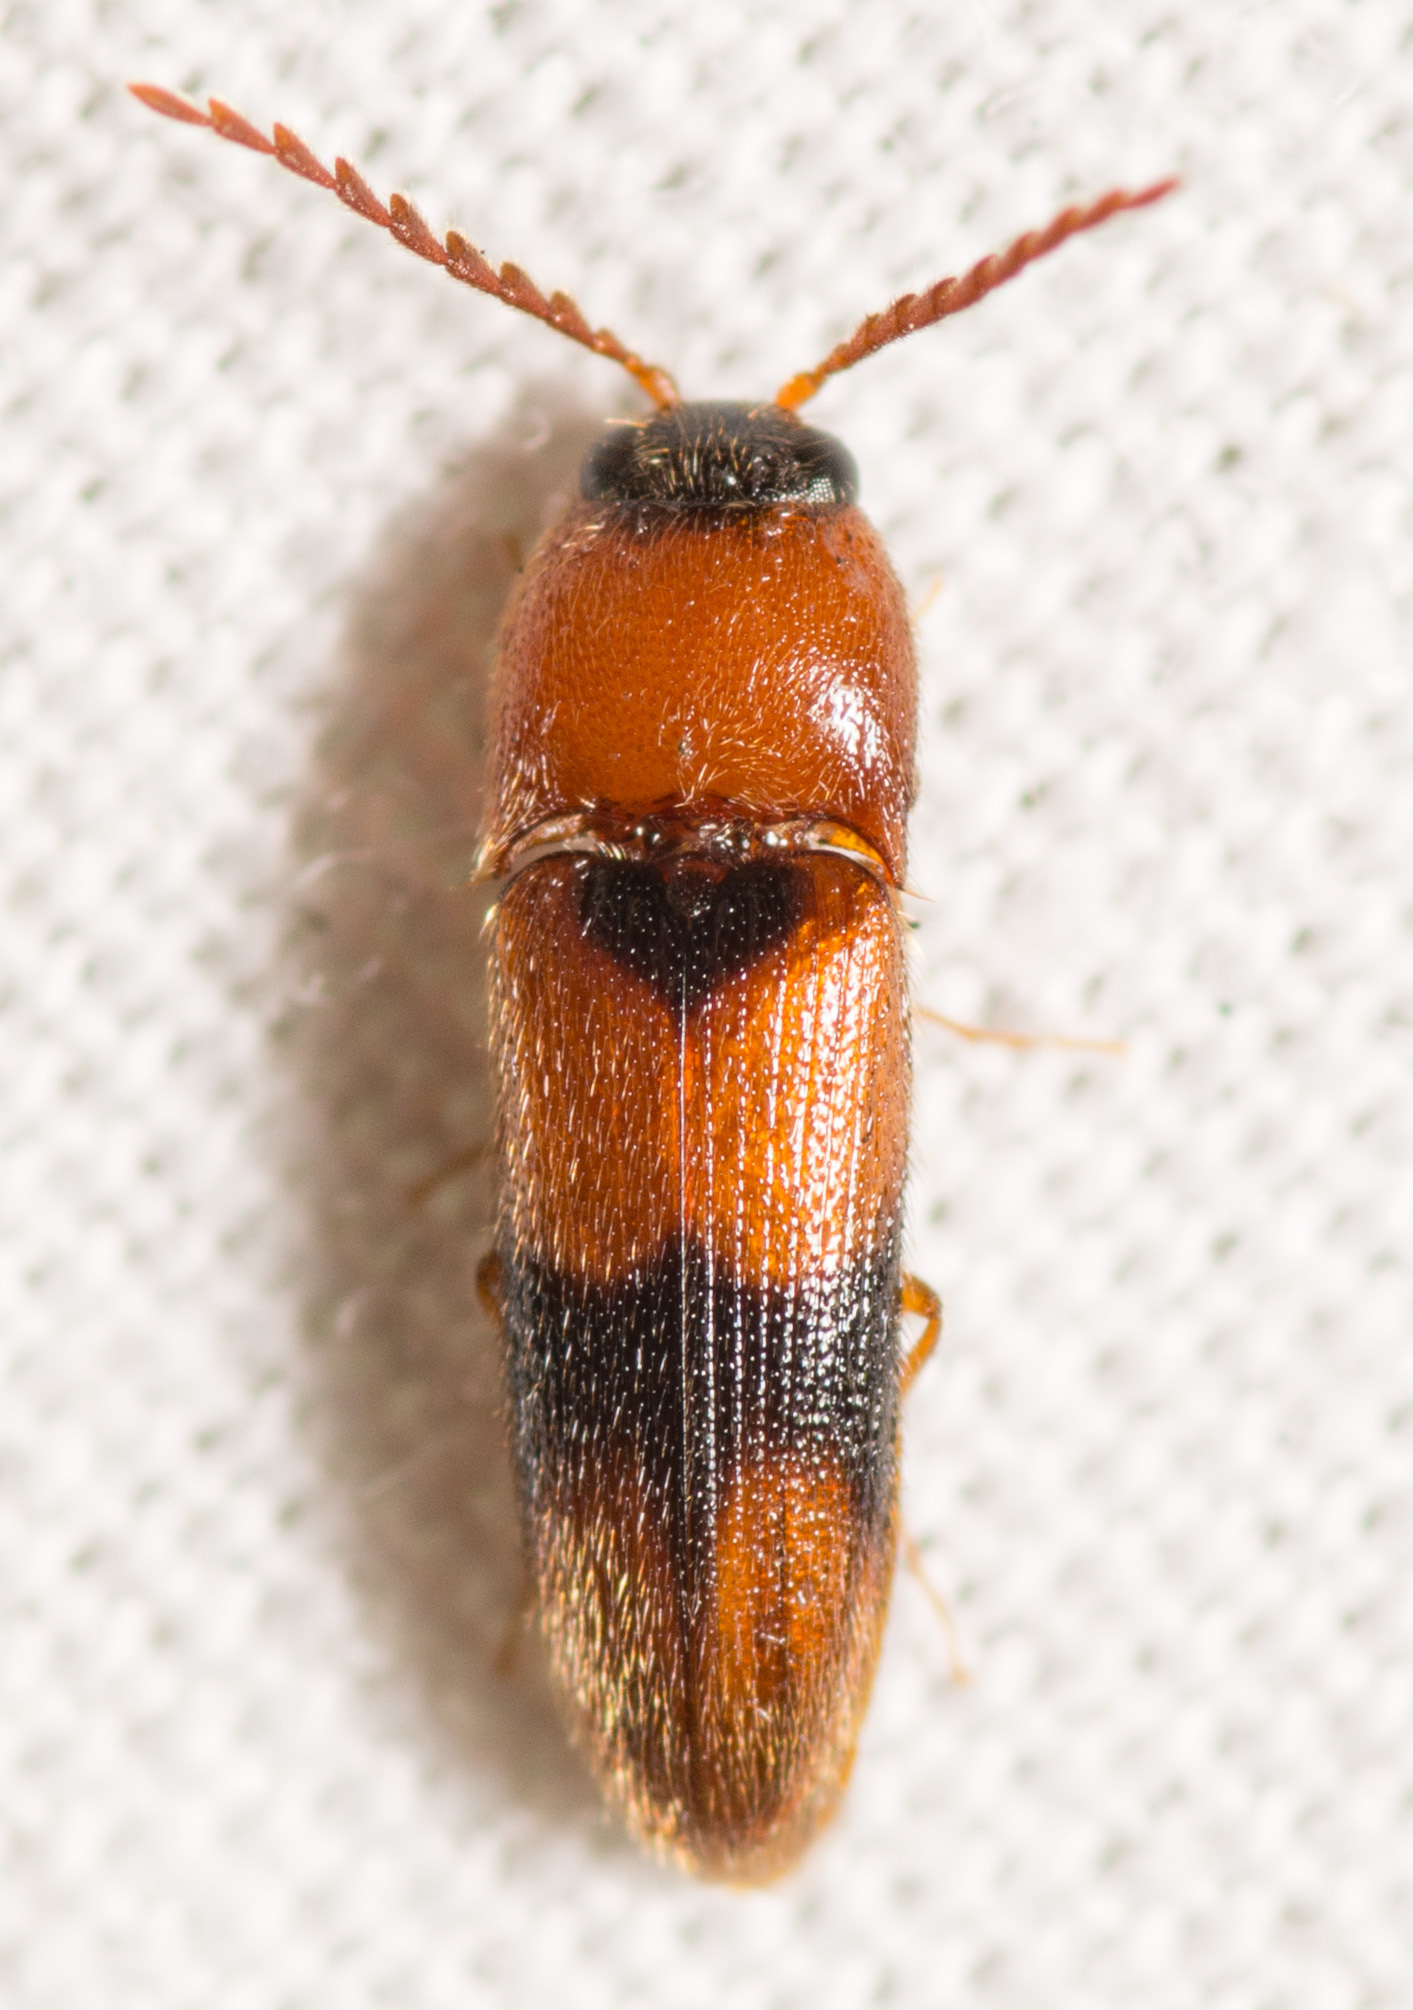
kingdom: Animalia
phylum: Arthropoda
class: Insecta
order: Coleoptera
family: Elateridae
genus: Ampedus
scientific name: Ampedus areolatus
